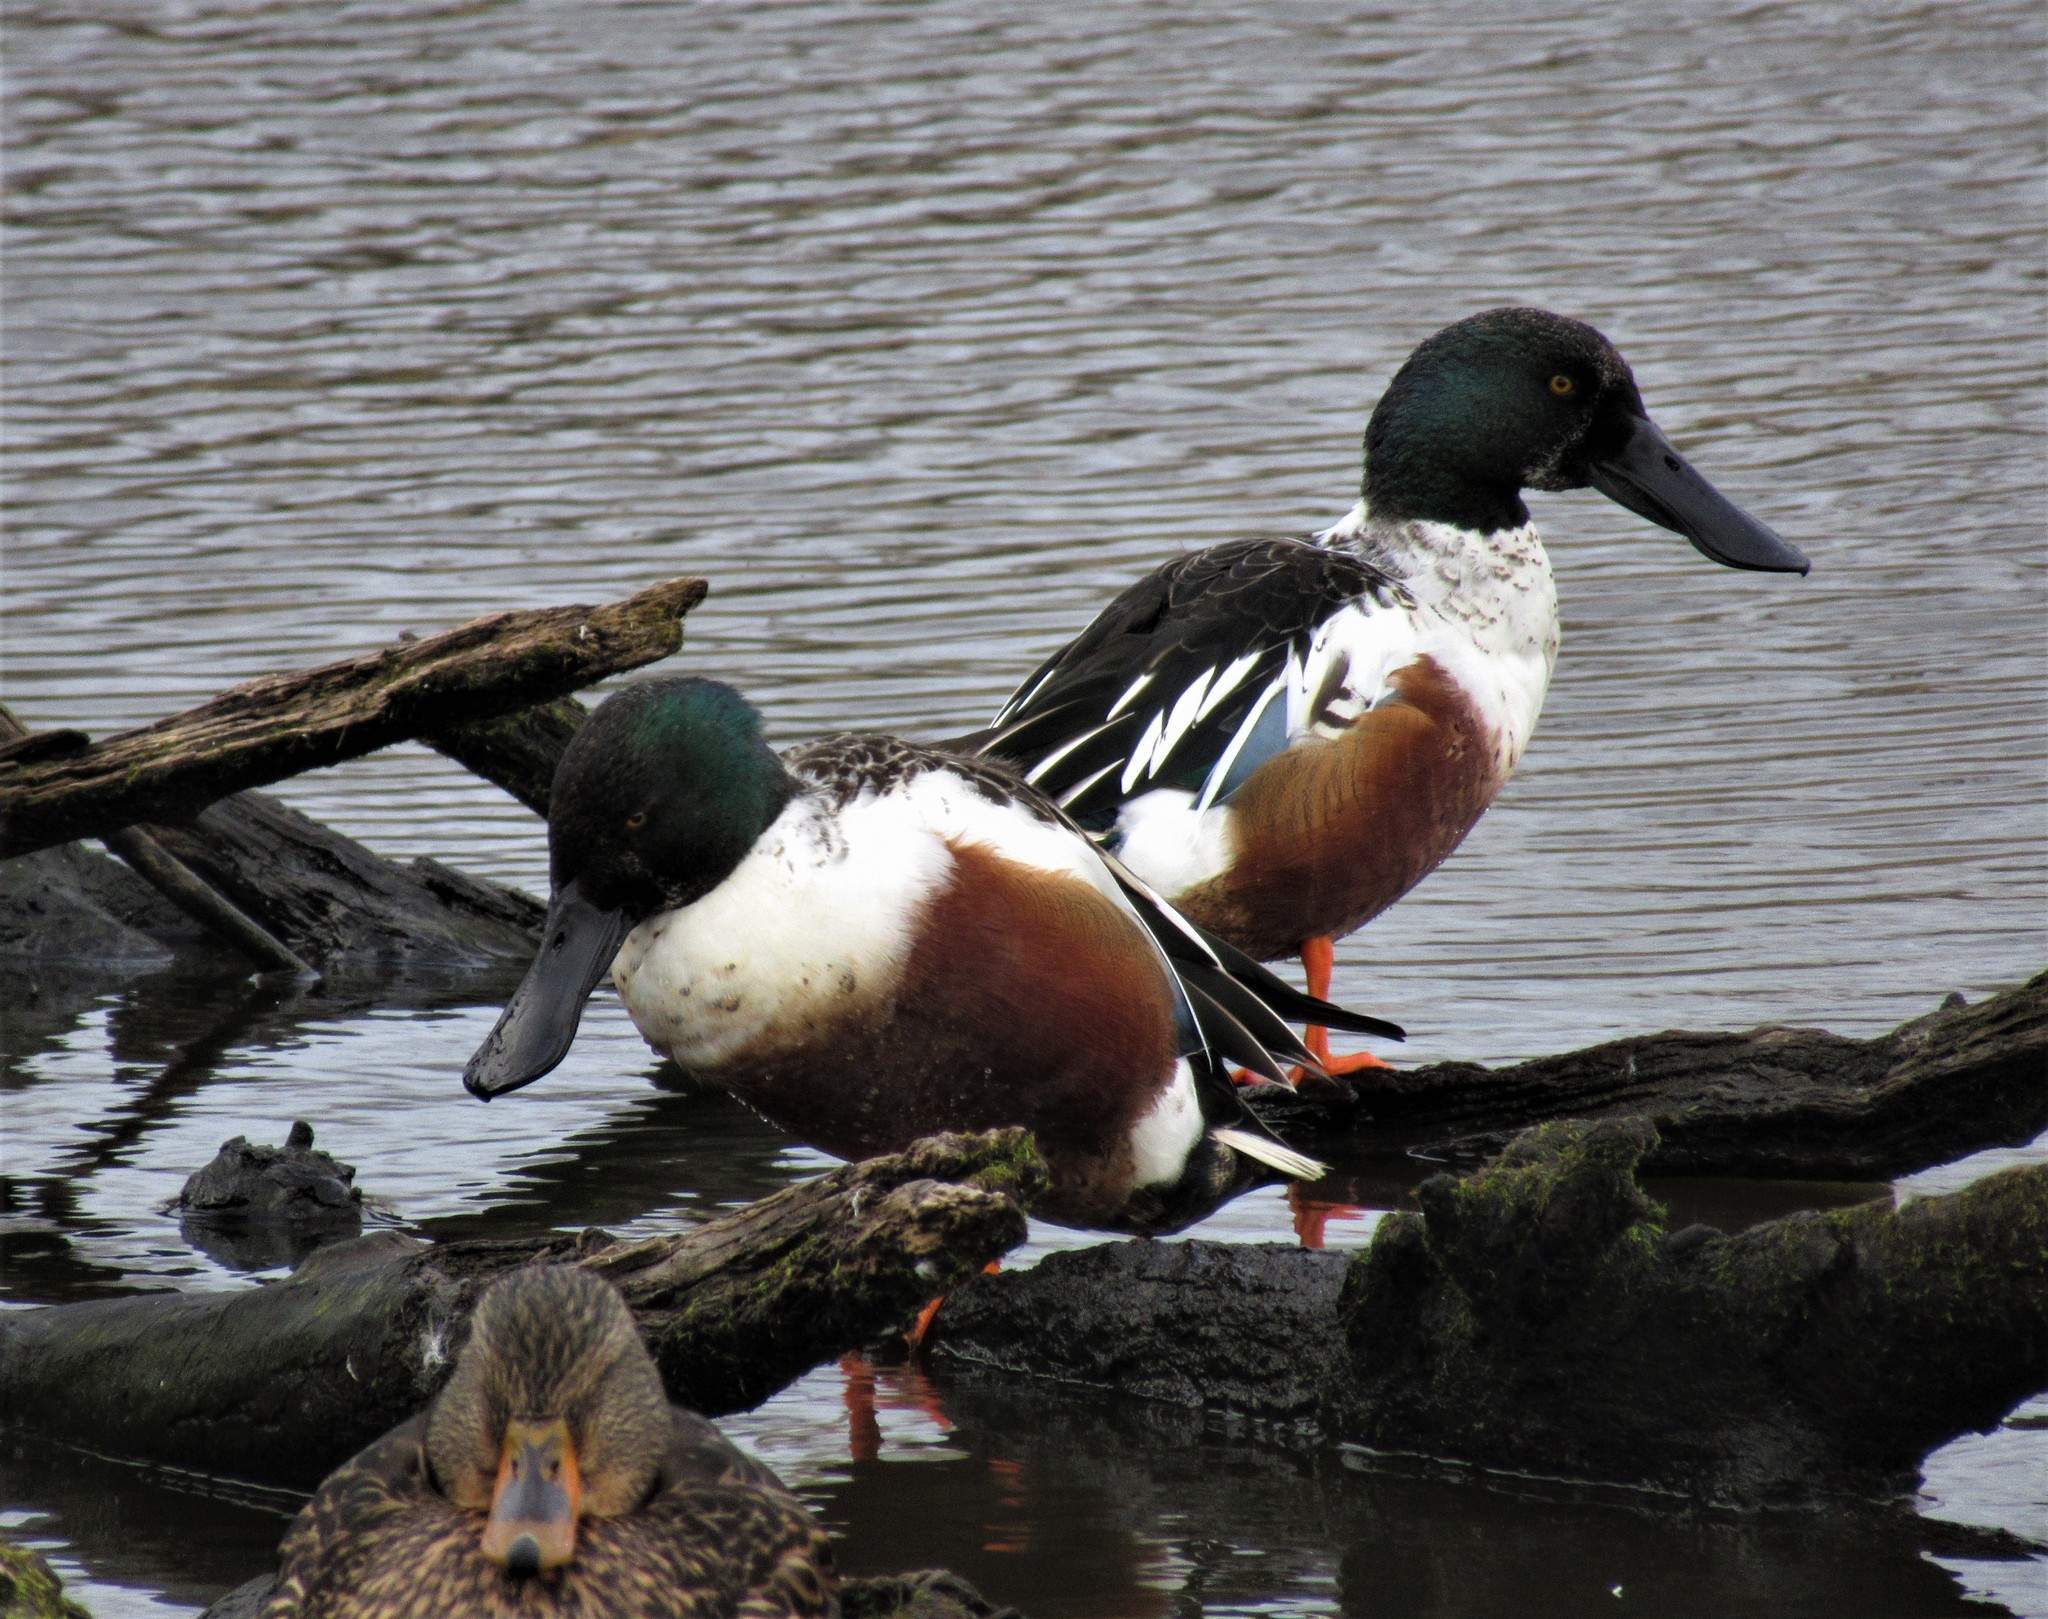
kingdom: Animalia
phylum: Chordata
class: Aves
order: Anseriformes
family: Anatidae
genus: Spatula
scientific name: Spatula clypeata
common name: Northern shoveler
